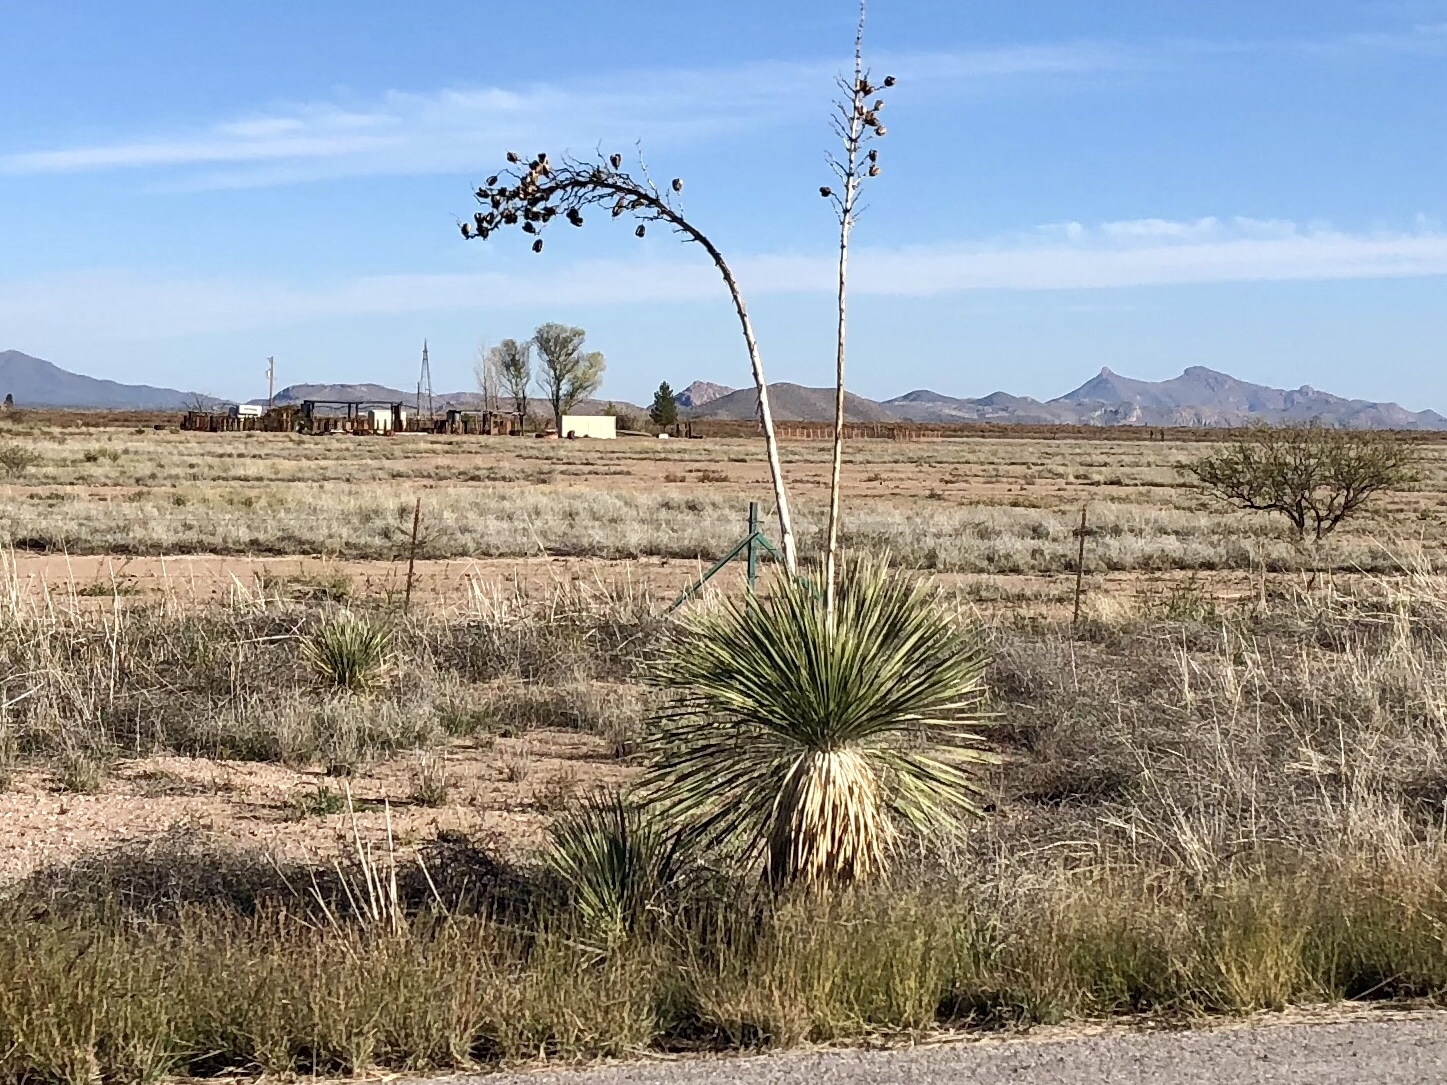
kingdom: Plantae
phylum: Tracheophyta
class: Liliopsida
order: Asparagales
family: Asparagaceae
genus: Yucca
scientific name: Yucca elata
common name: Palmella
